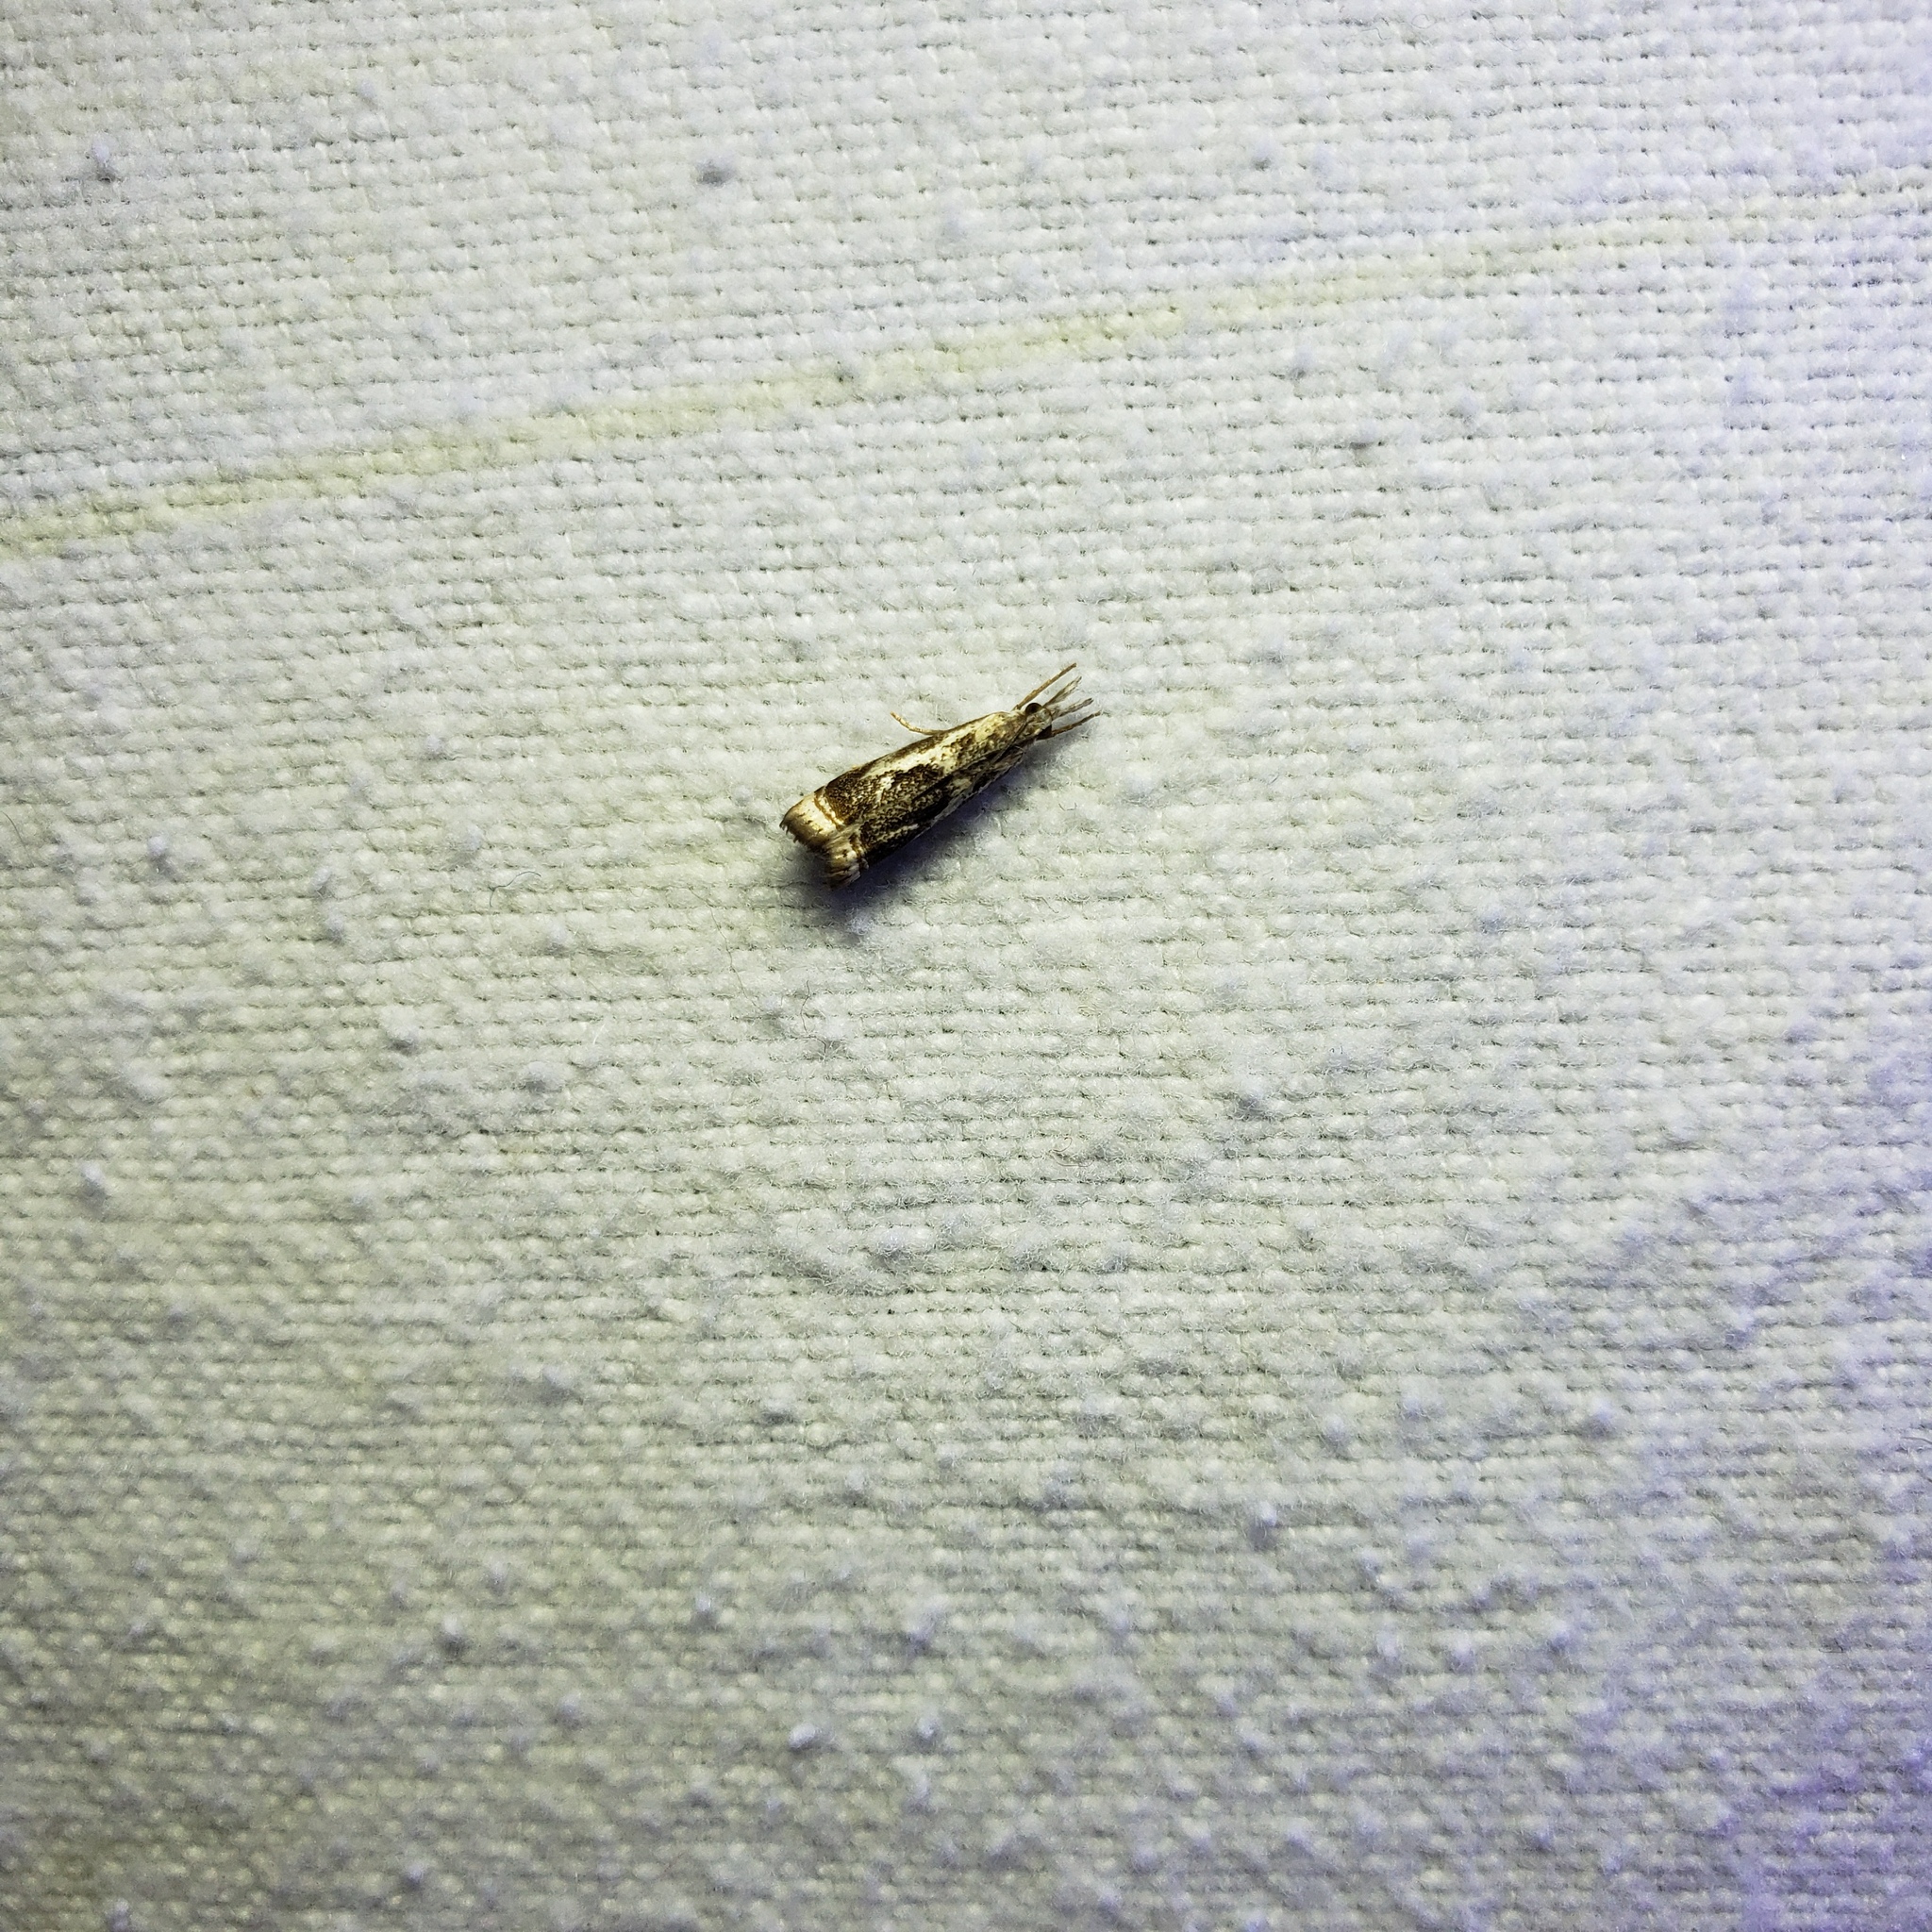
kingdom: Animalia
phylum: Arthropoda
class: Insecta
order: Lepidoptera
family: Crambidae
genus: Microcrambus
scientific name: Microcrambus elegans
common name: Elegant grass-veneer
